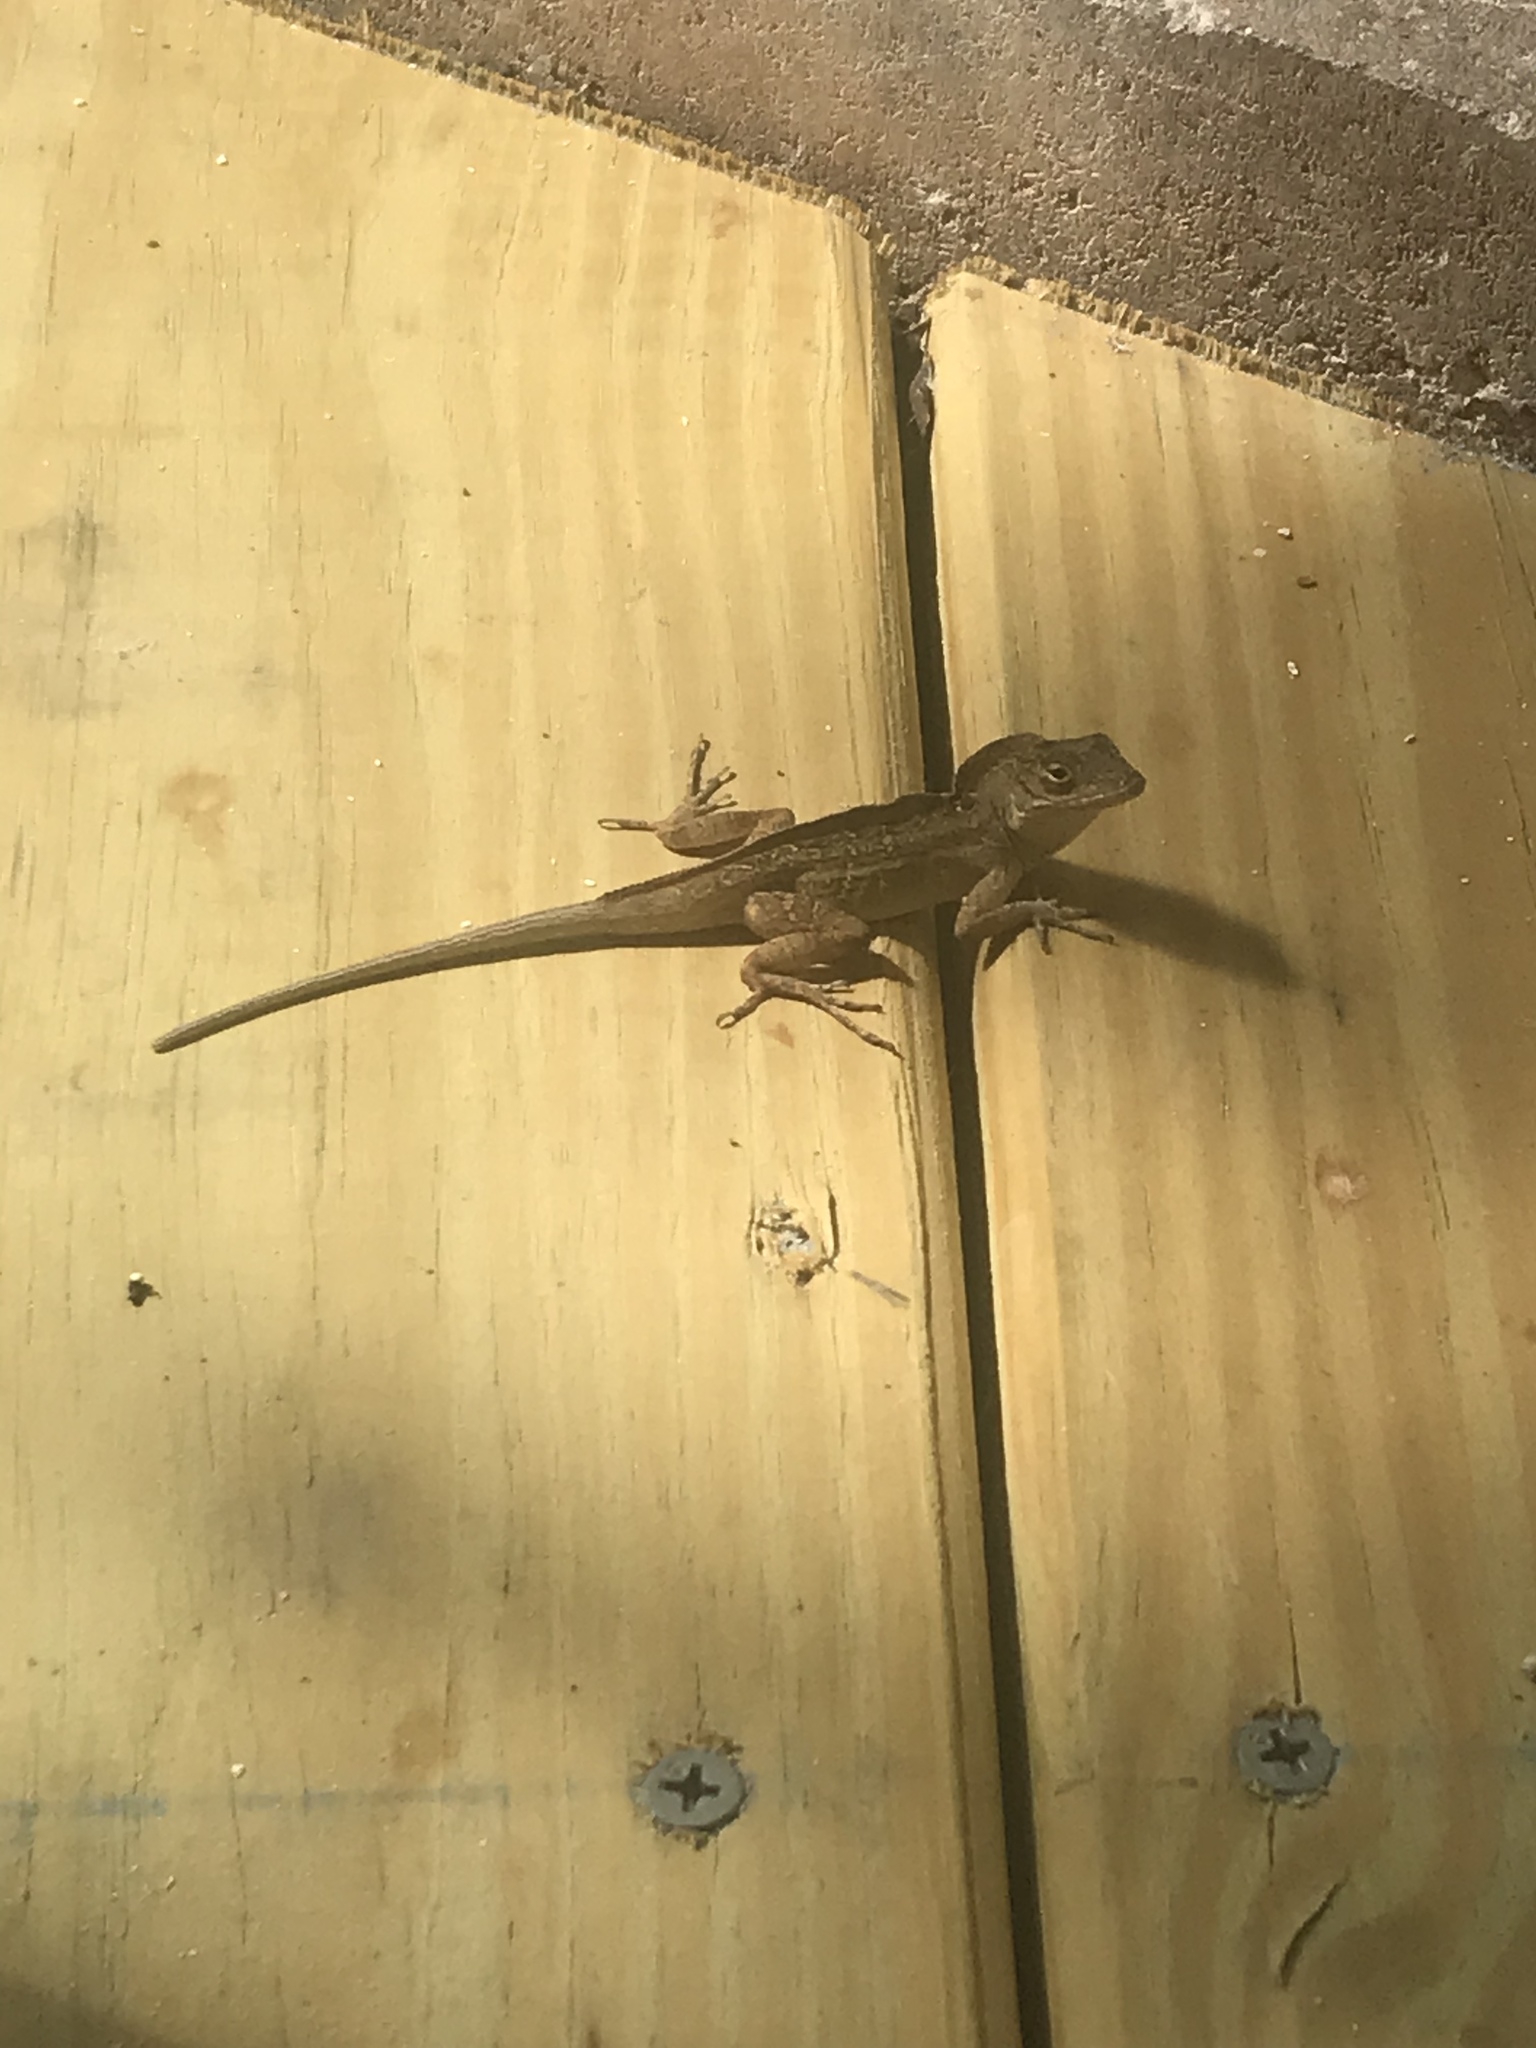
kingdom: Animalia
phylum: Chordata
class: Squamata
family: Dactyloidae
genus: Anolis
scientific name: Anolis sagrei
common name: Brown anole
